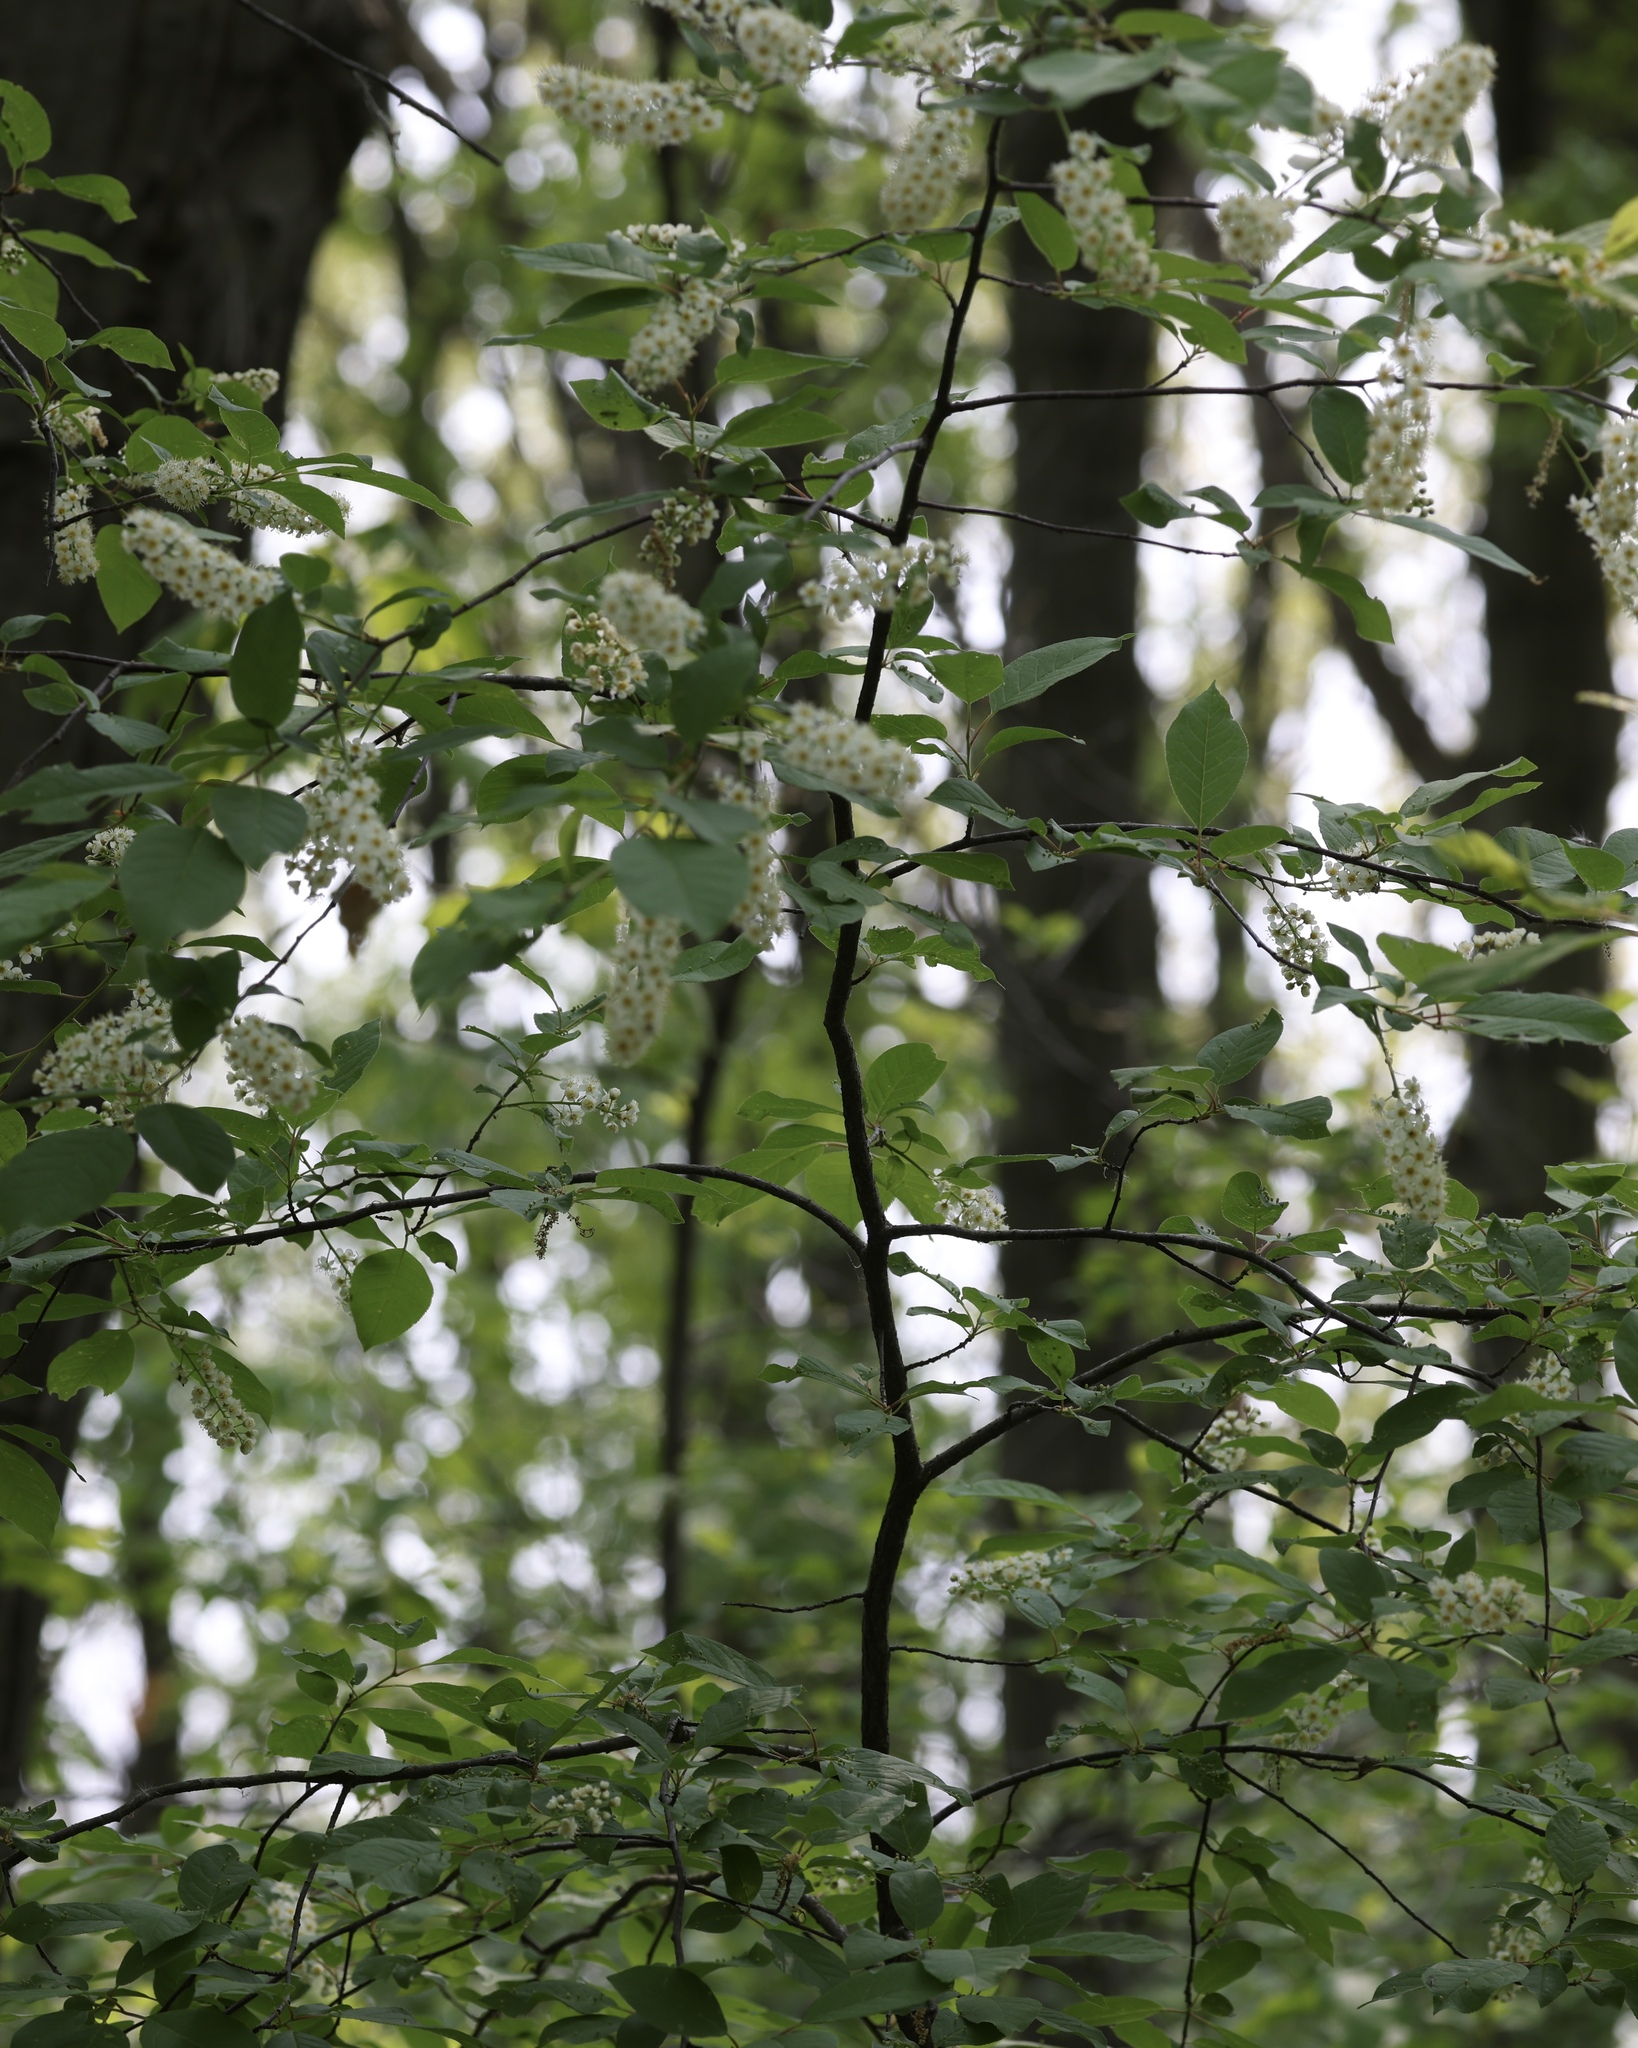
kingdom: Plantae
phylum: Tracheophyta
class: Magnoliopsida
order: Rosales
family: Rosaceae
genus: Prunus
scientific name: Prunus virginiana
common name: Chokecherry
